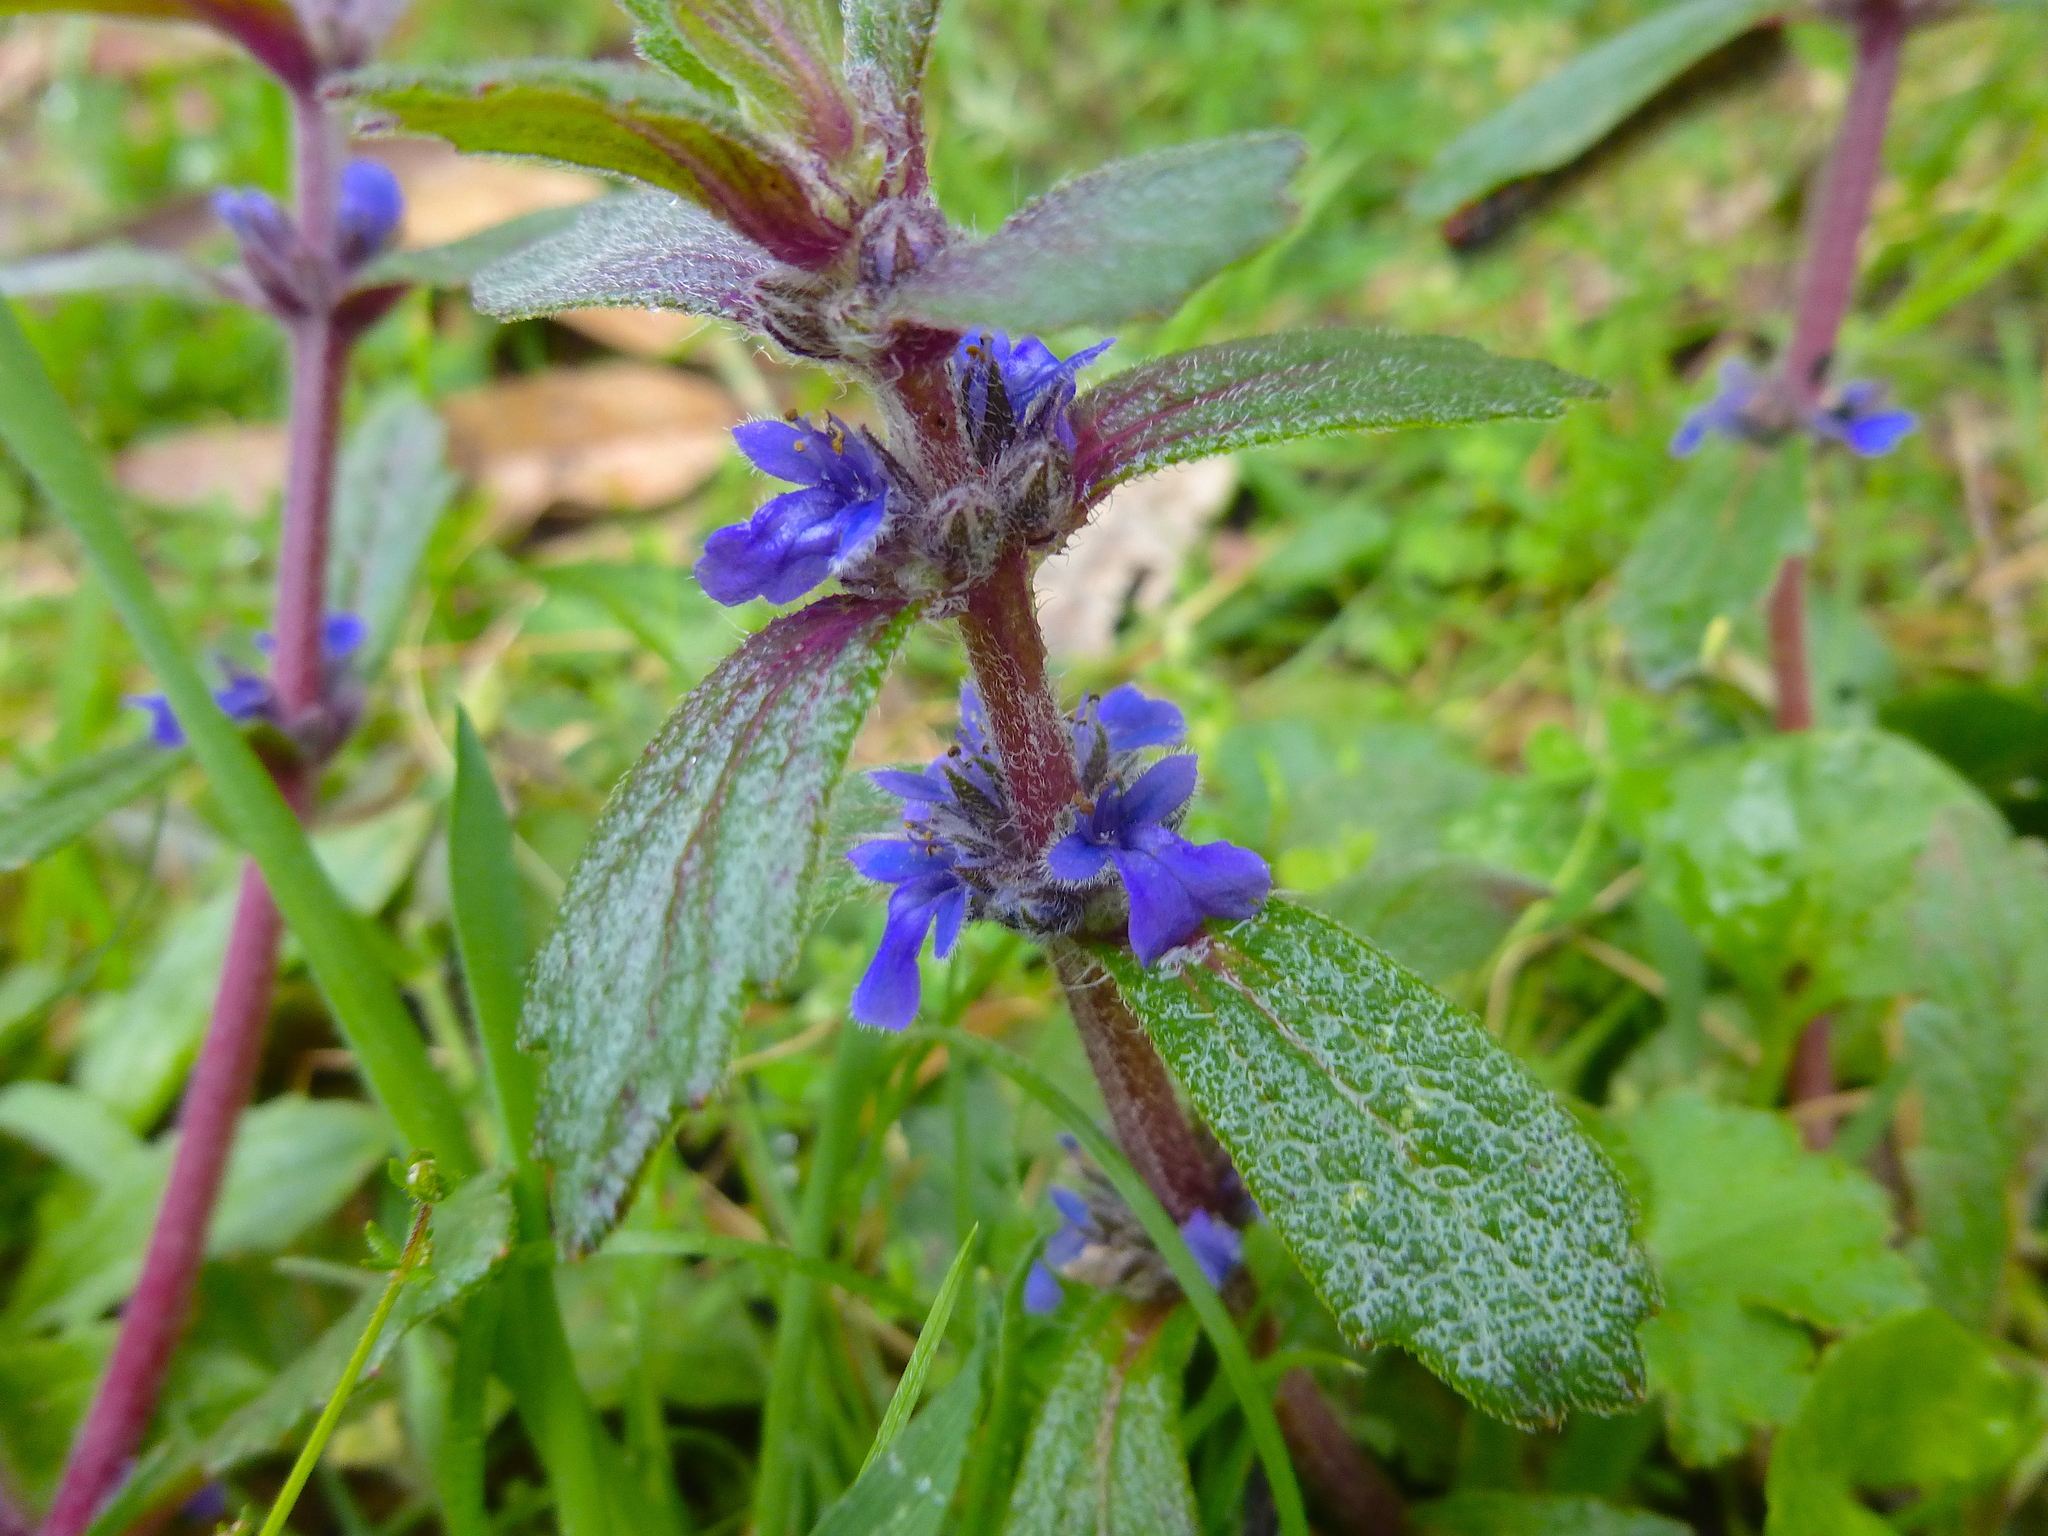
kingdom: Plantae
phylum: Tracheophyta
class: Magnoliopsida
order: Lamiales
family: Lamiaceae
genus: Ajuga
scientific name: Ajuga australis
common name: Australian bugle
